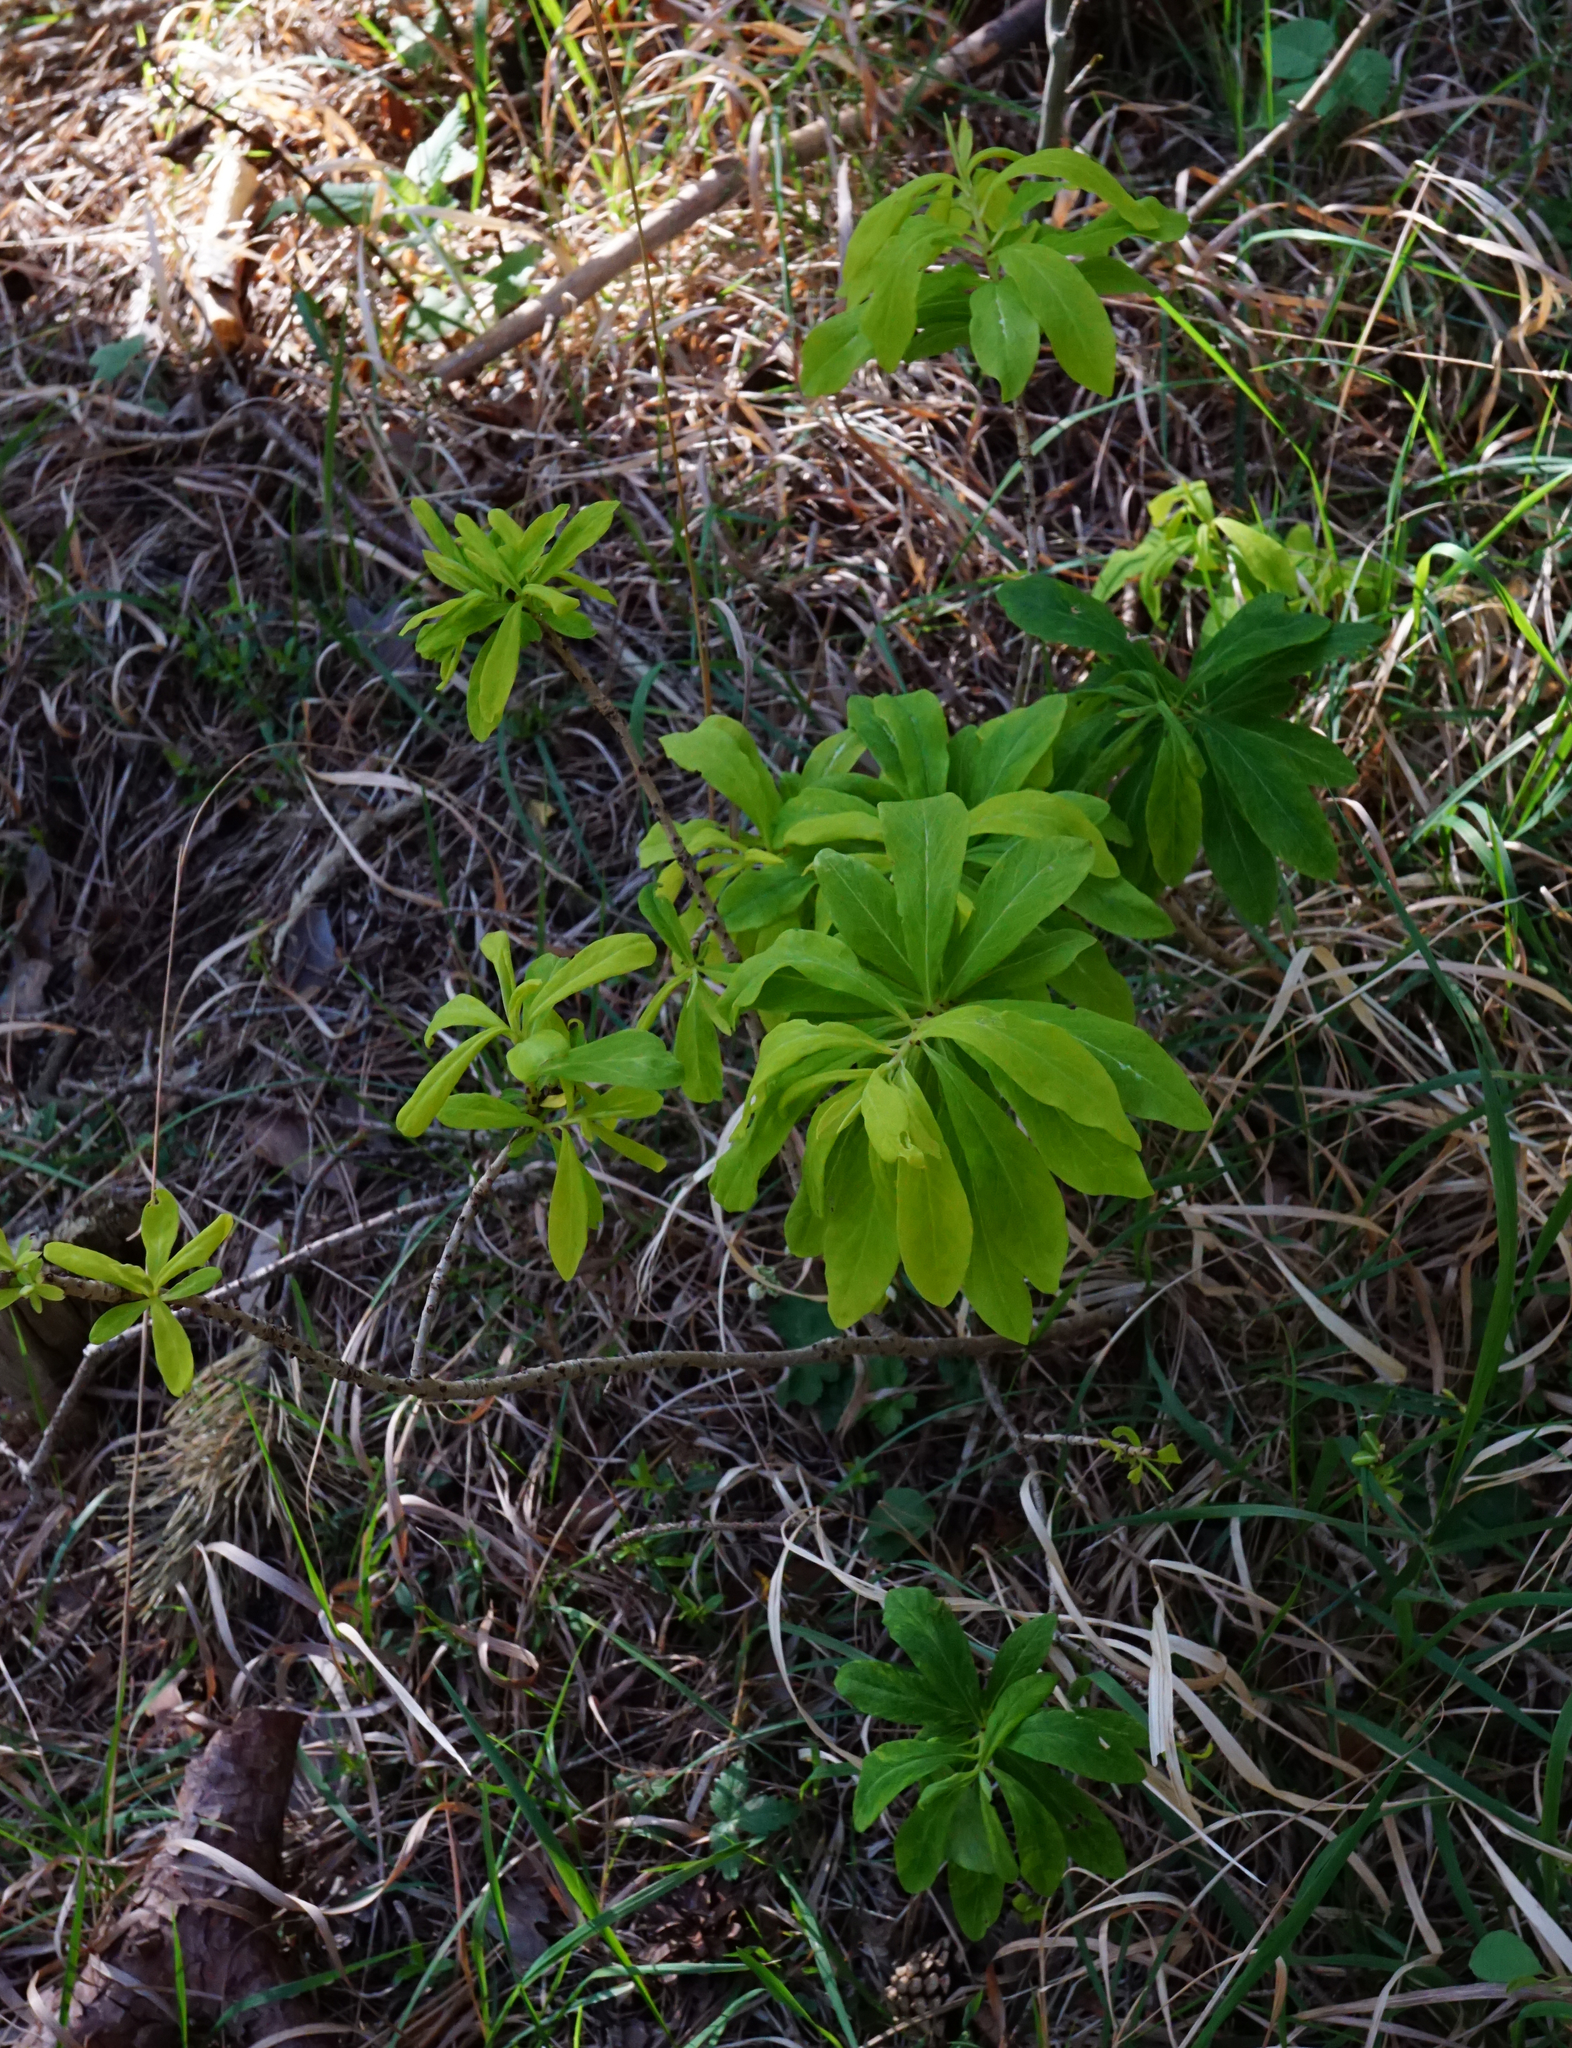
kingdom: Plantae
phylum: Tracheophyta
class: Magnoliopsida
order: Malvales
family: Thymelaeaceae
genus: Daphne
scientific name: Daphne mezereum
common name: Mezereon
